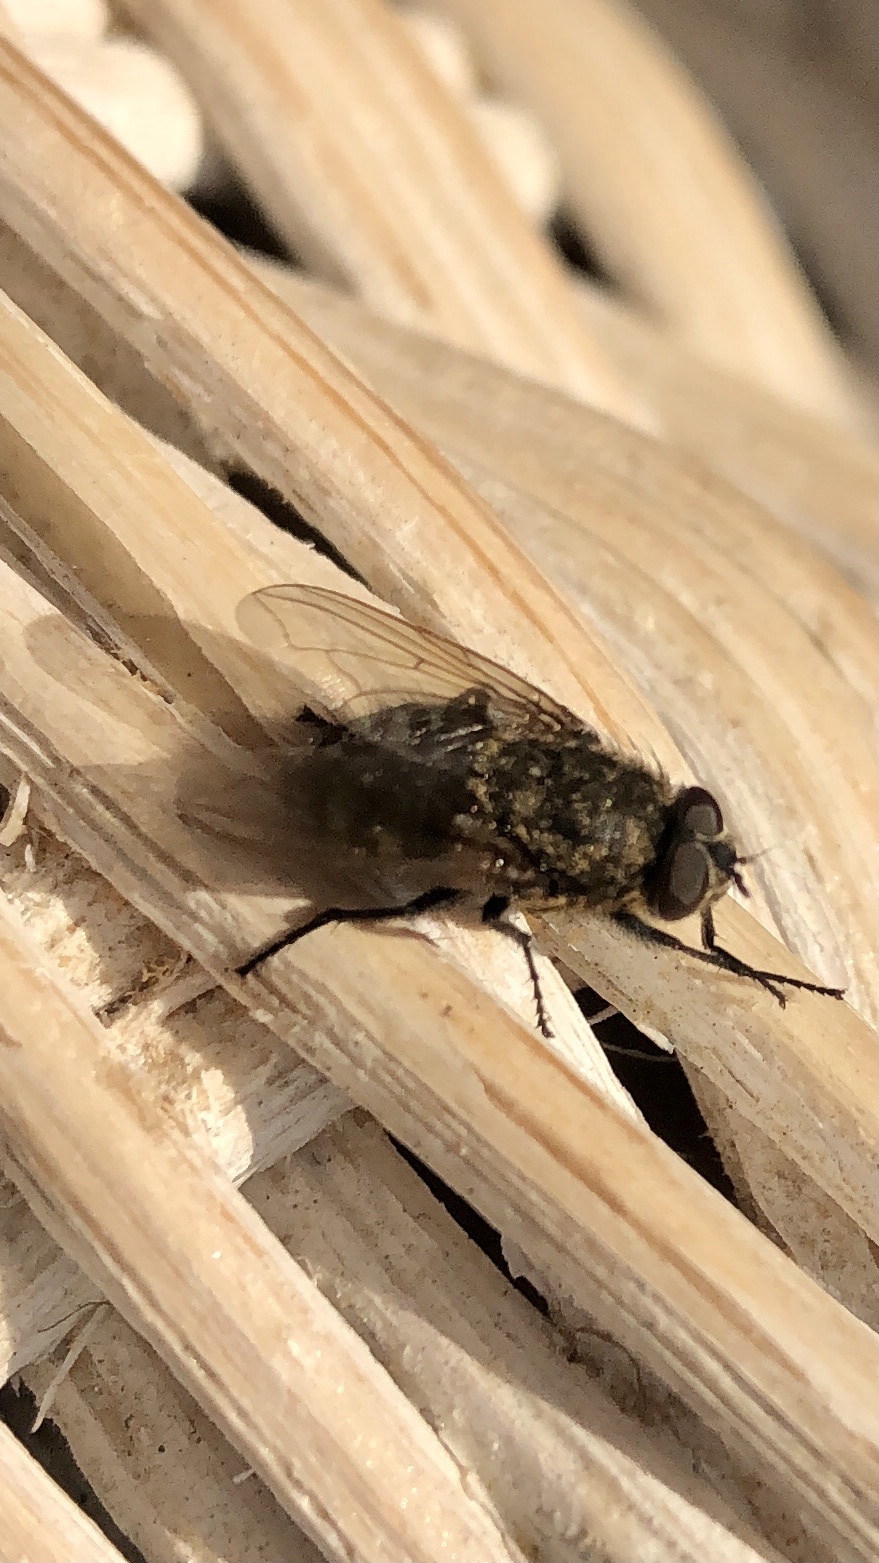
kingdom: Animalia
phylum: Arthropoda
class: Insecta
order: Diptera
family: Polleniidae
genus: Pollenia
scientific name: Pollenia
